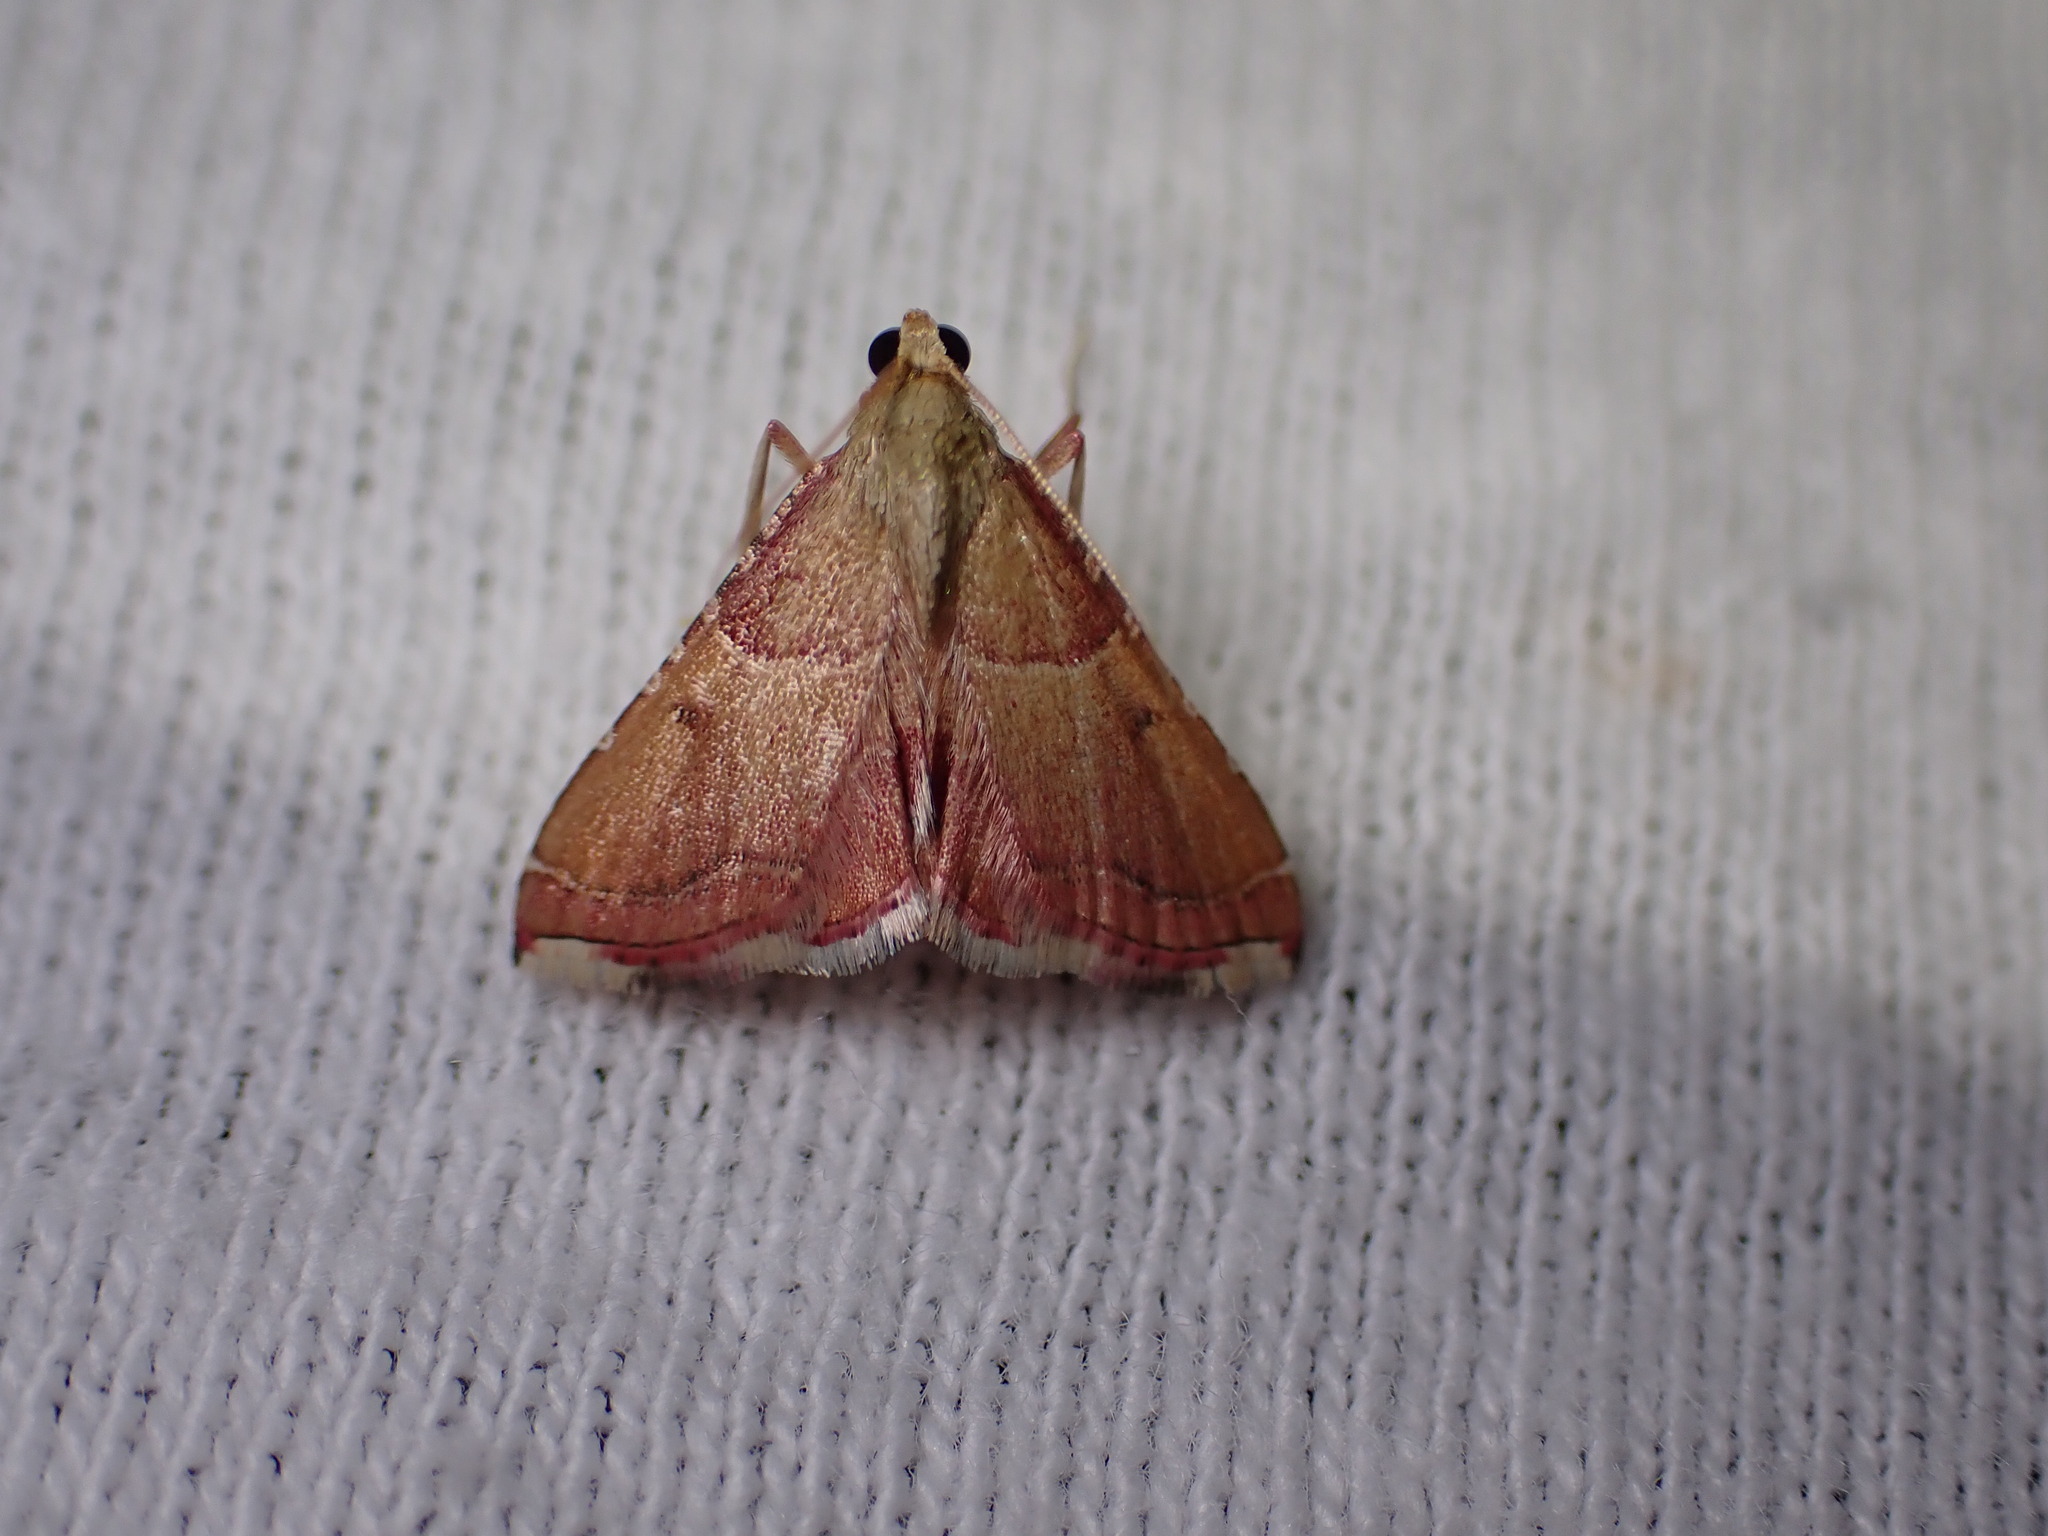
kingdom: Animalia
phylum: Arthropoda
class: Insecta
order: Lepidoptera
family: Pyralidae
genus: Endotricha
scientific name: Endotricha flammealis
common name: Rosy tabby
